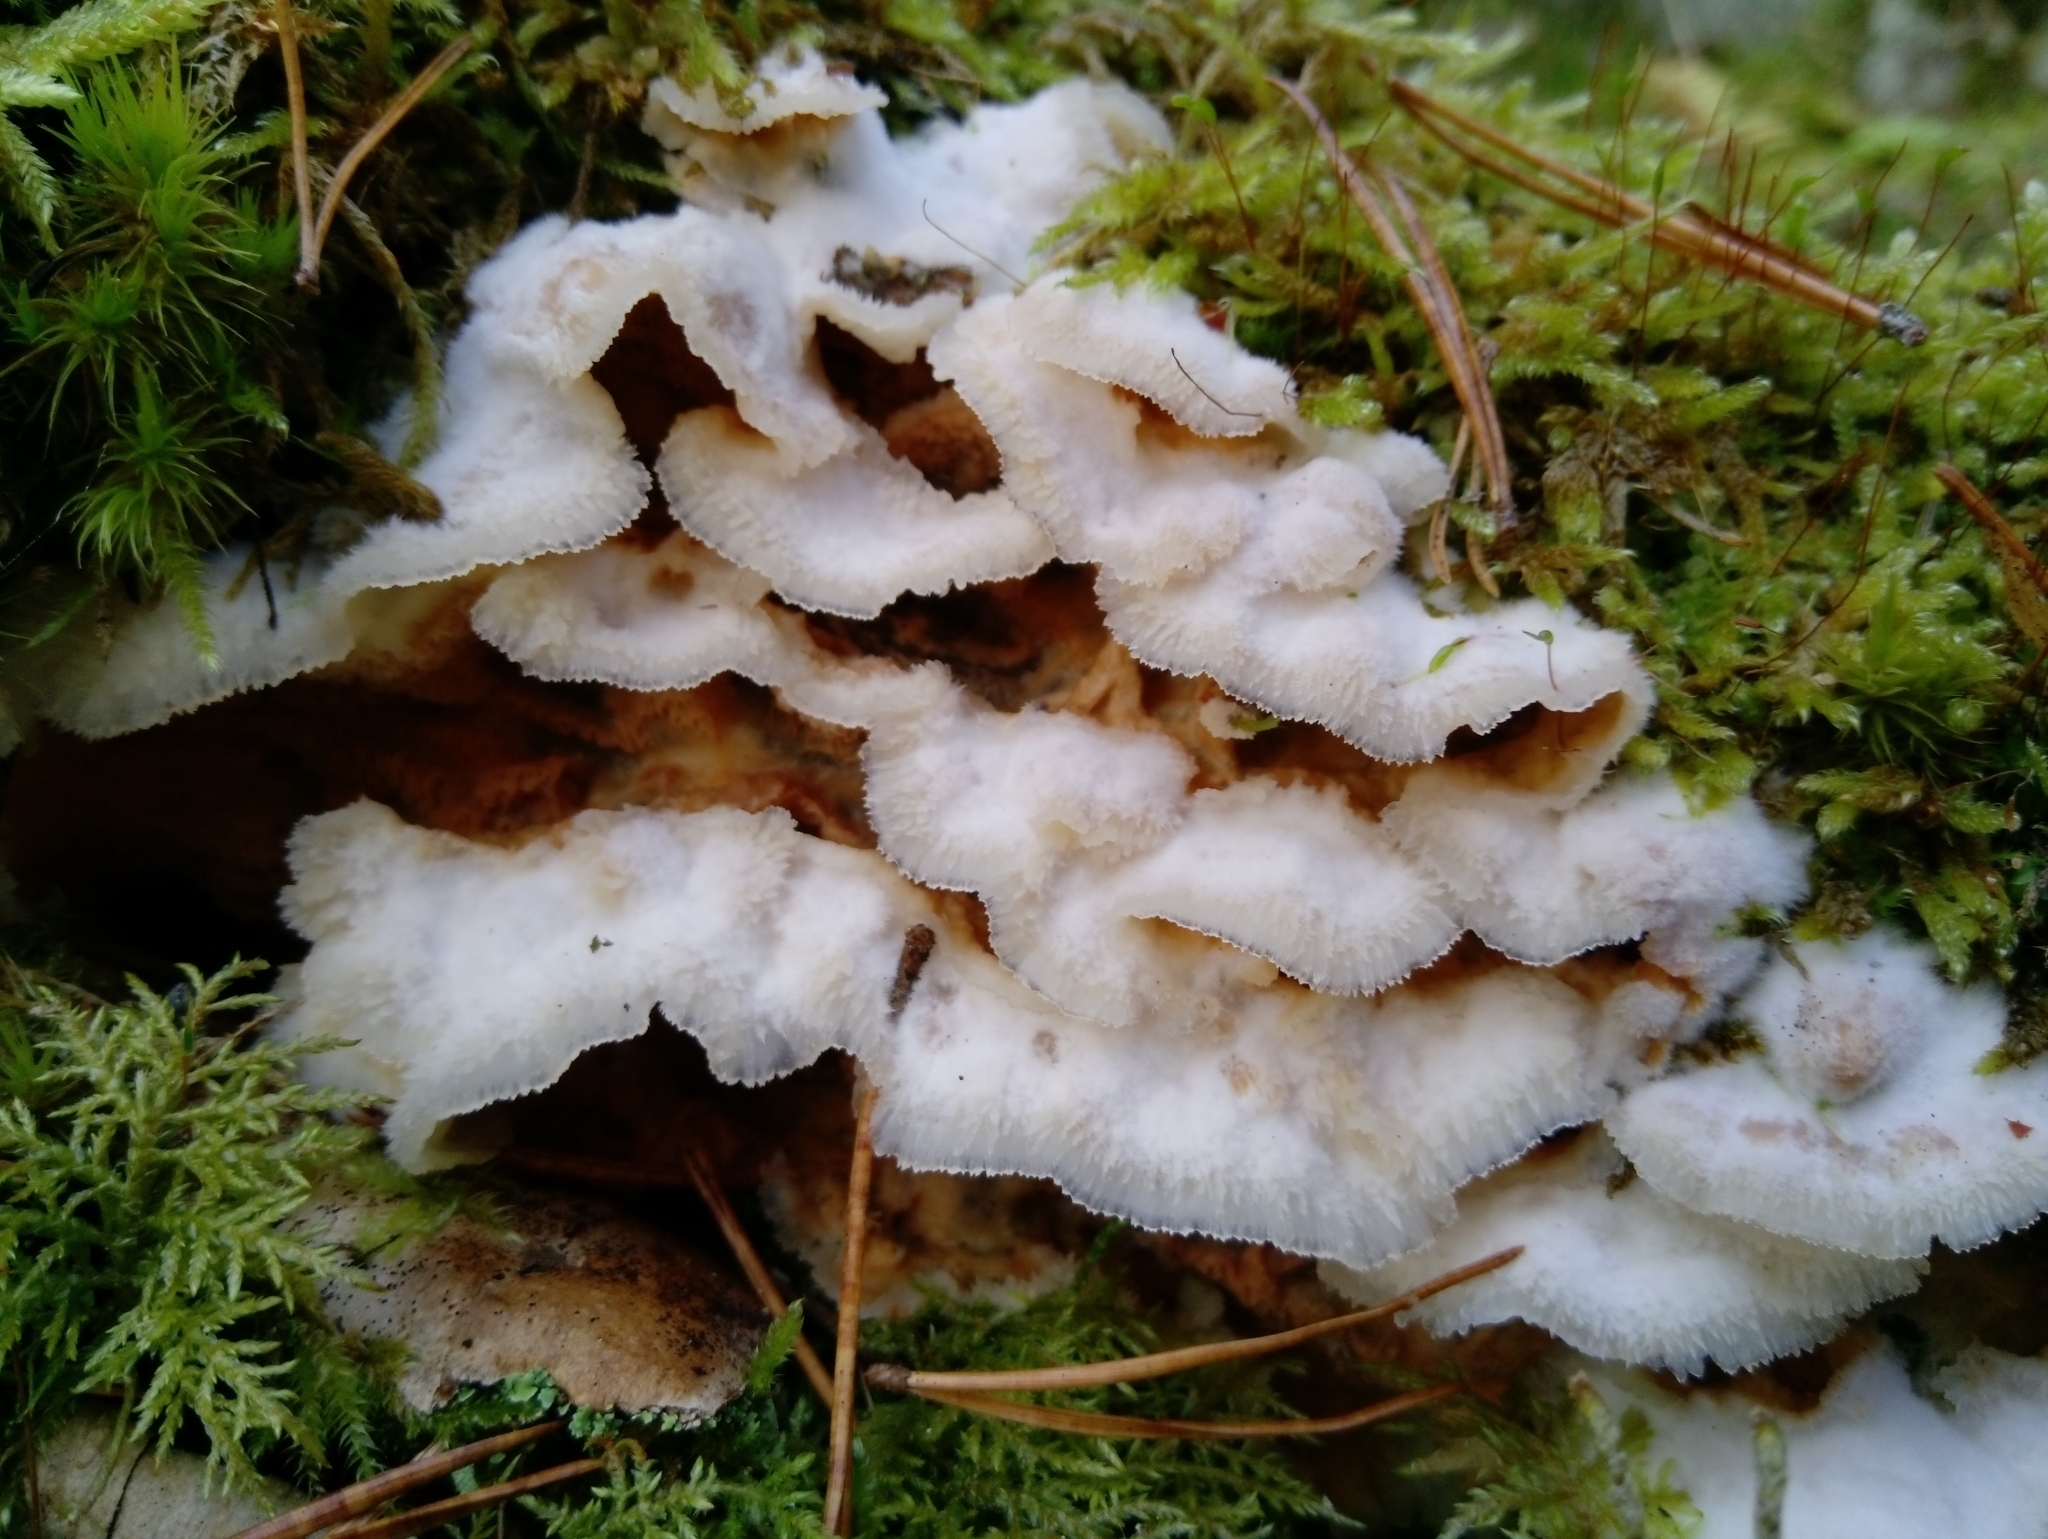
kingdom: Fungi
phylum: Basidiomycota
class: Agaricomycetes
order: Polyporales
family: Meruliaceae
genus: Phlebia
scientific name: Phlebia tremellosa
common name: Jelly rot
